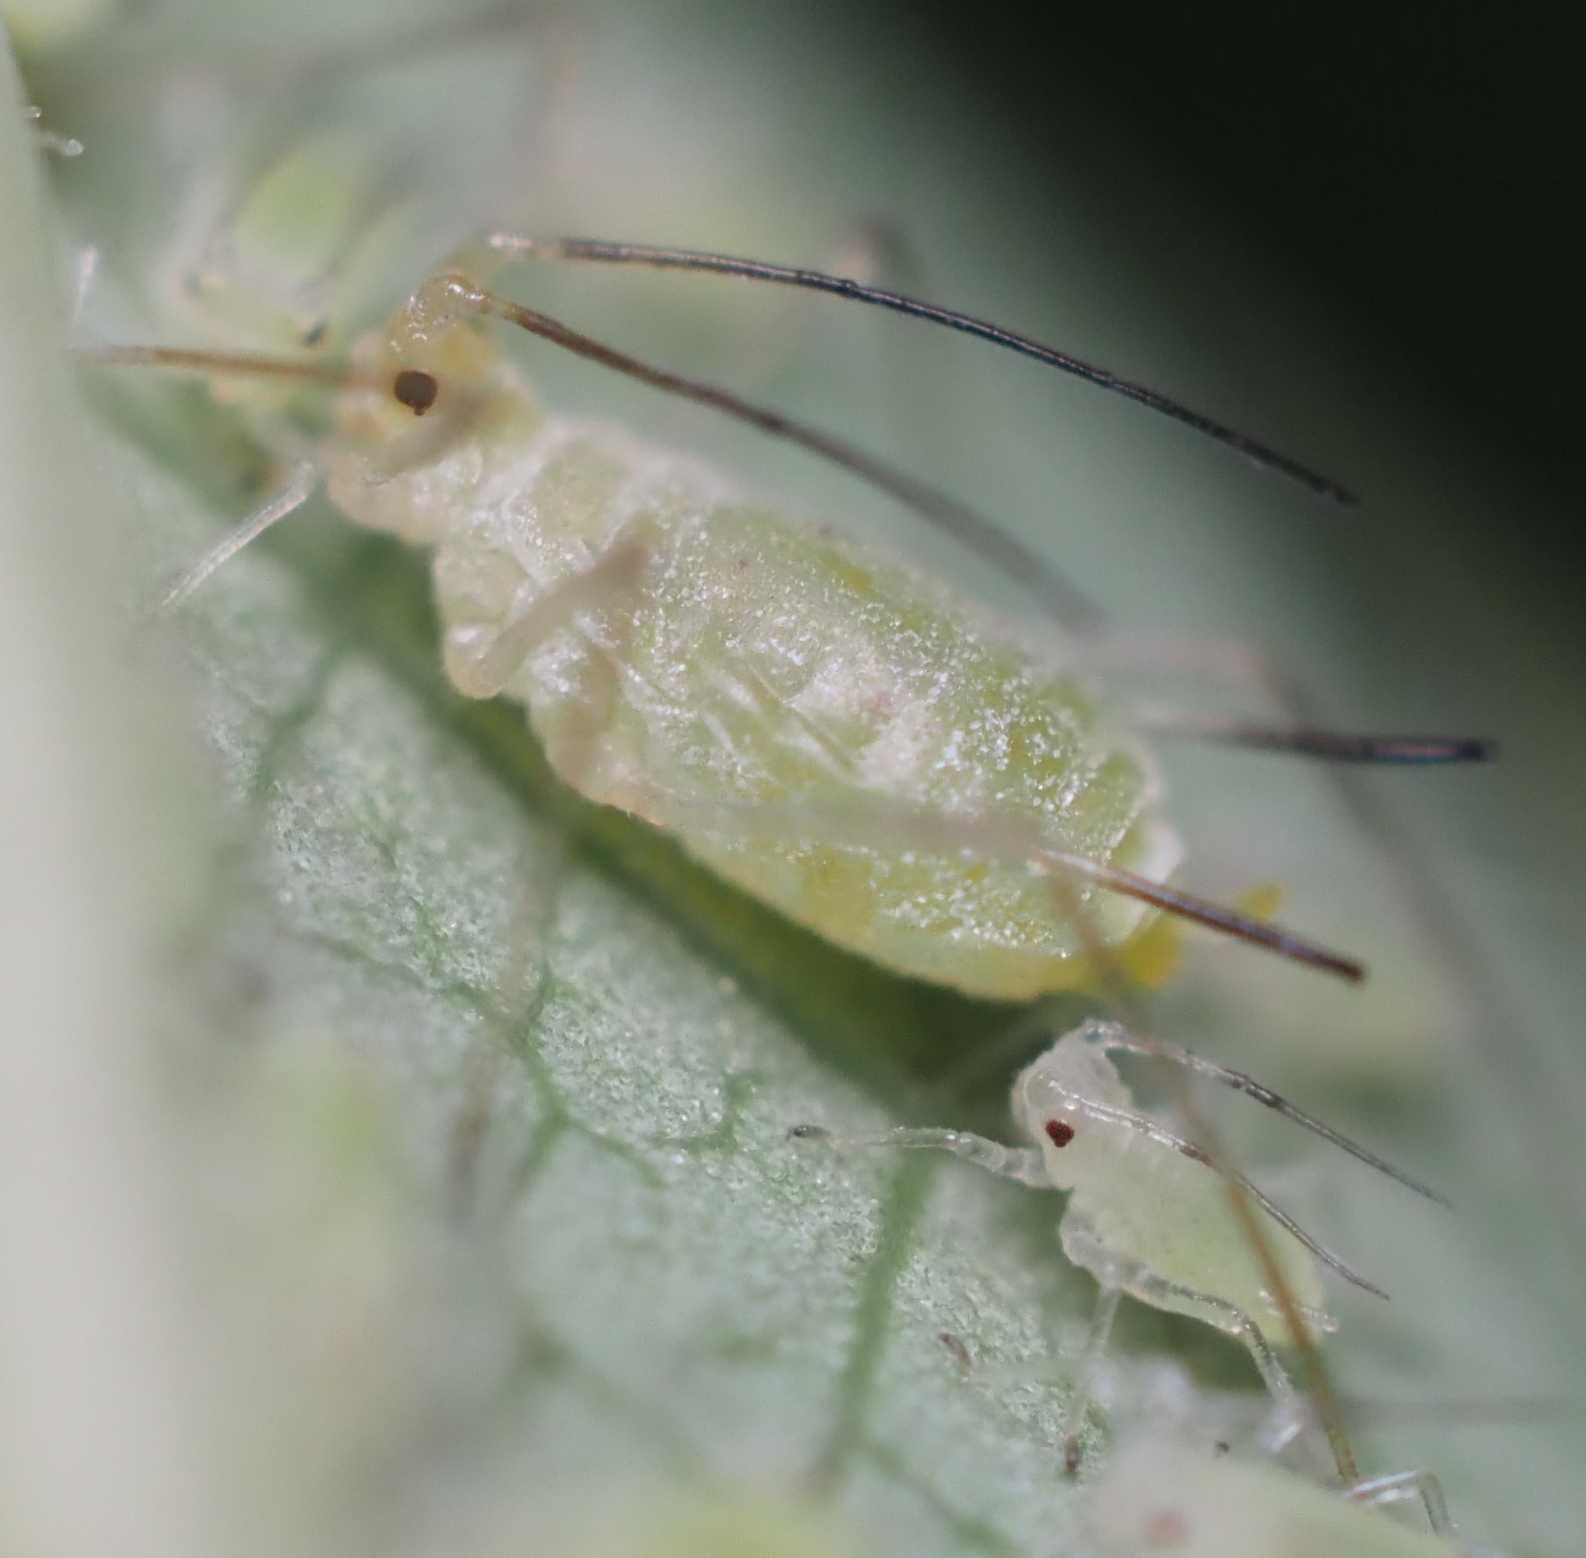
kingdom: Animalia
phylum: Arthropoda
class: Insecta
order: Hemiptera
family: Aphididae
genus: Illinoia
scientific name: Illinoia liriodendri
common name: Tuliptree aphid
